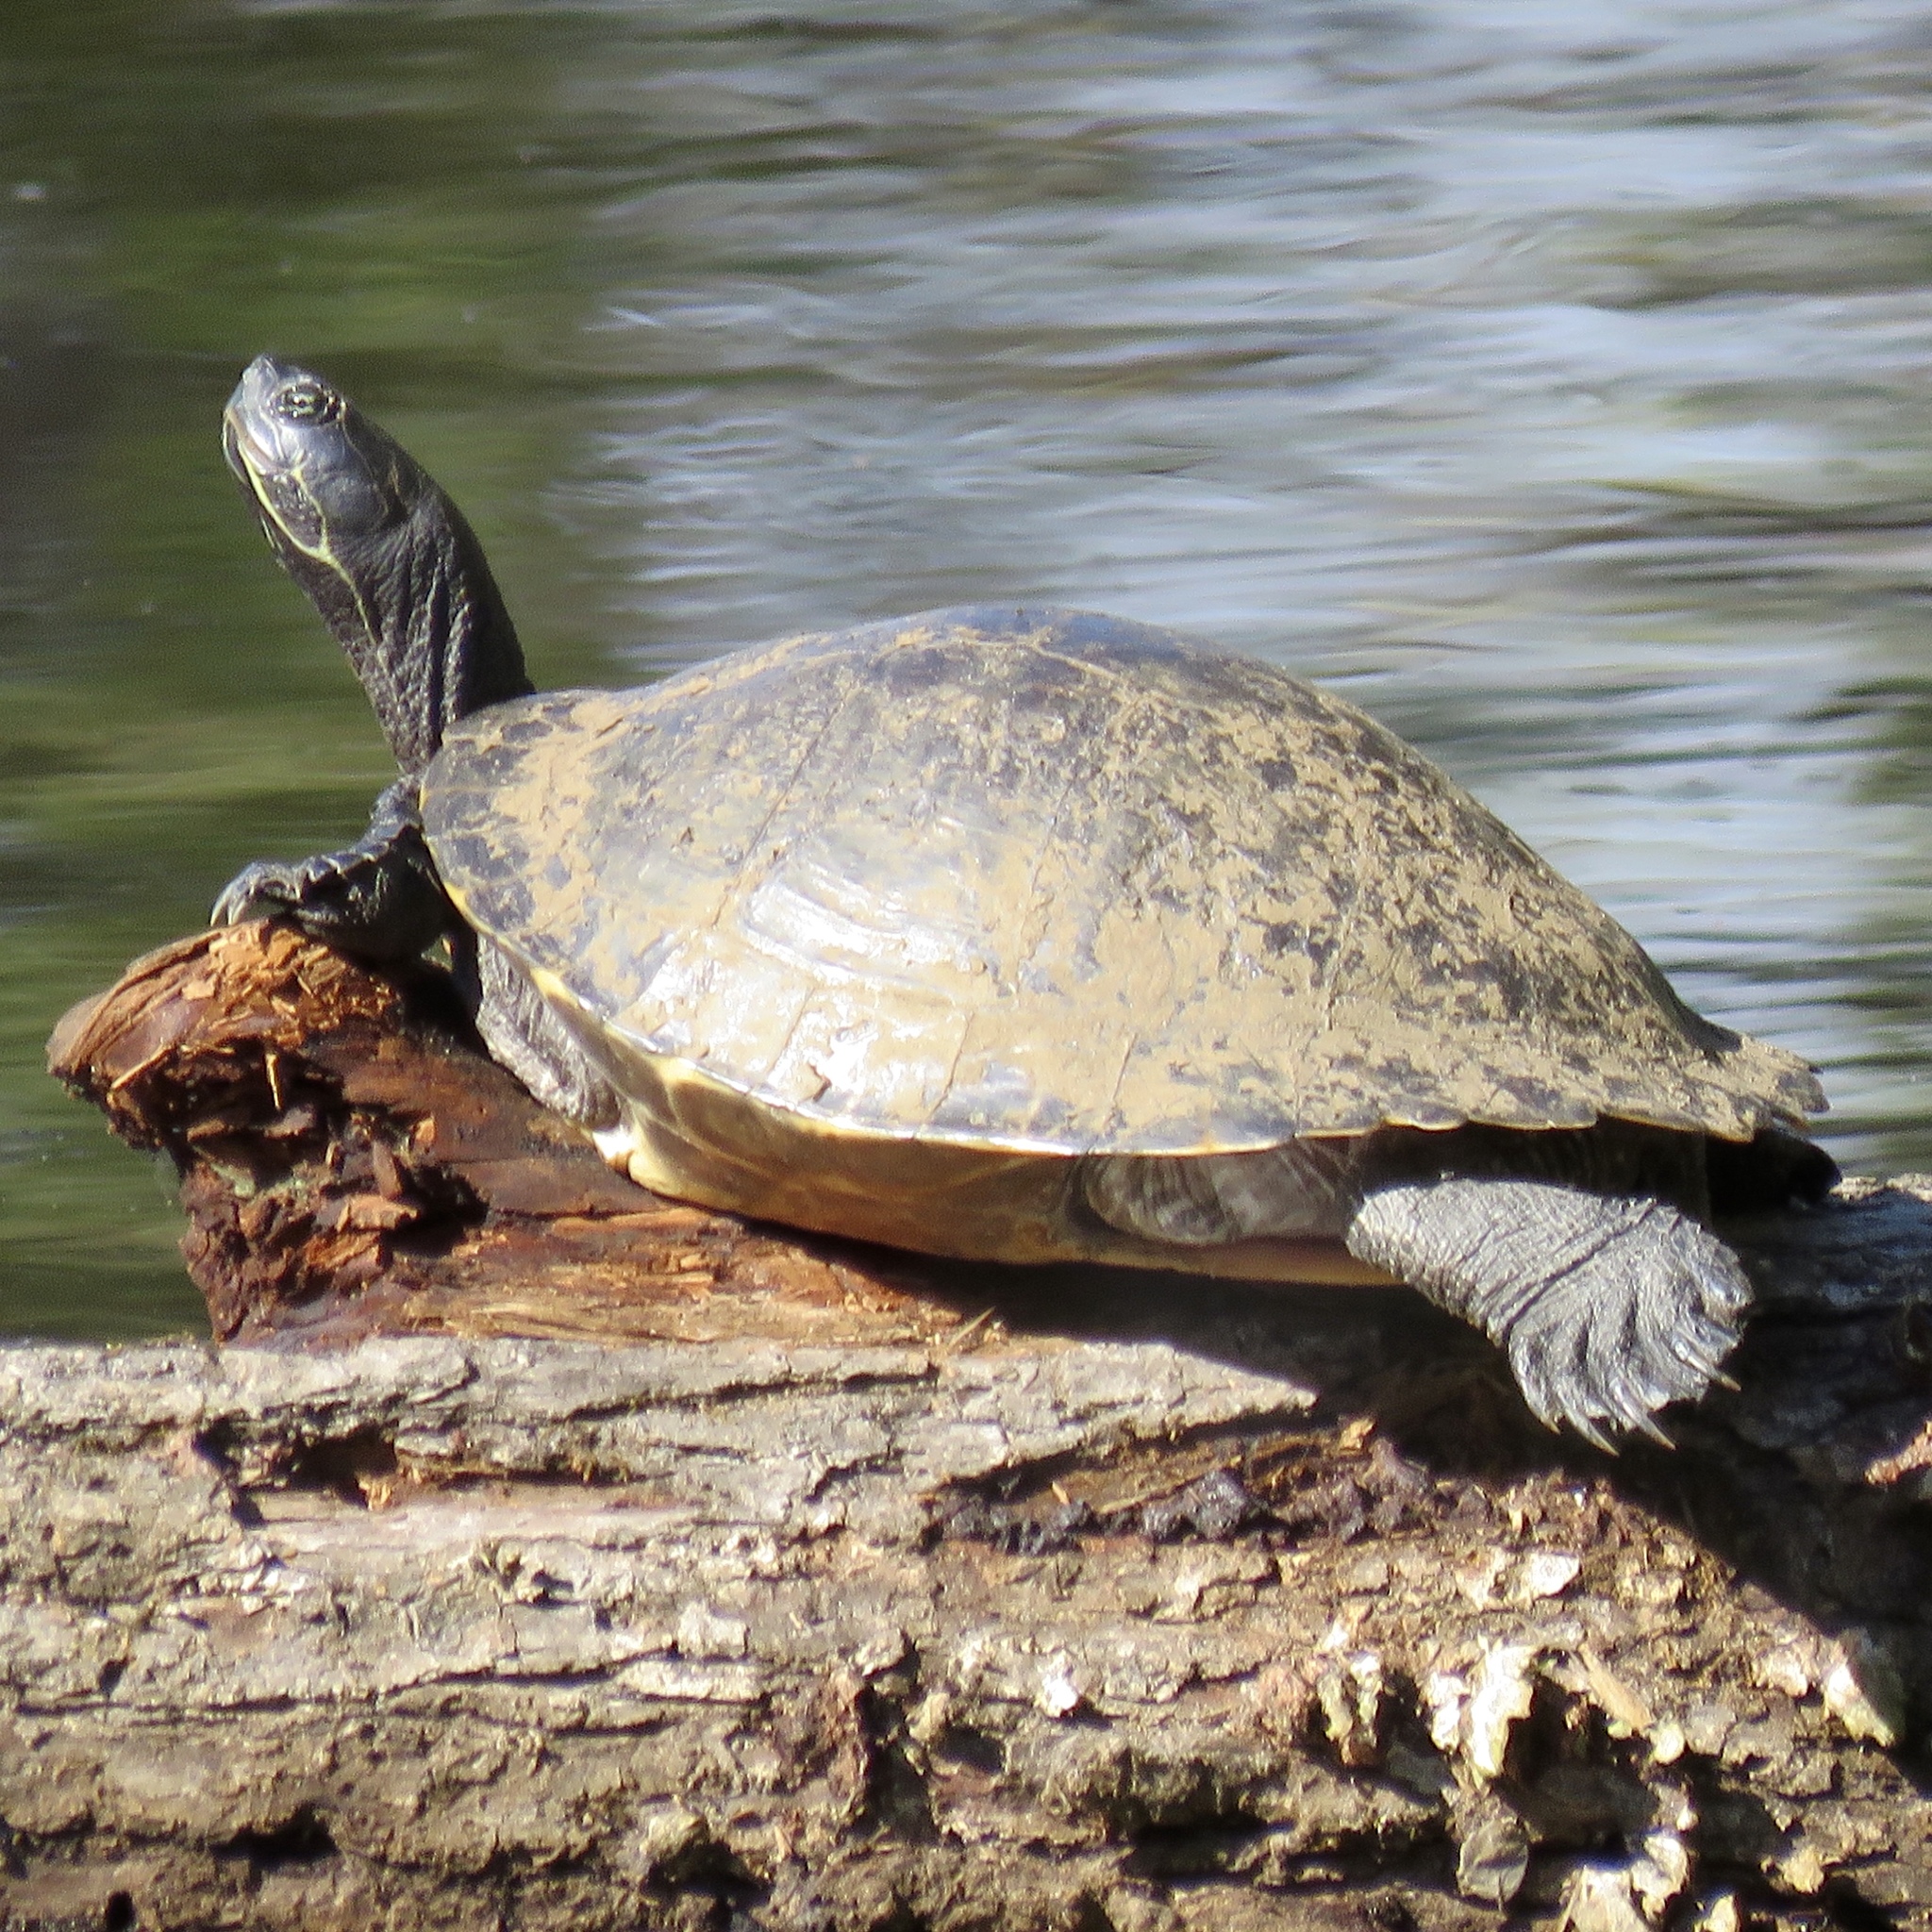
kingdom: Animalia
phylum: Chordata
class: Testudines
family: Emydidae
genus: Pseudemys
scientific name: Pseudemys concinna
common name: Eastern river cooter
